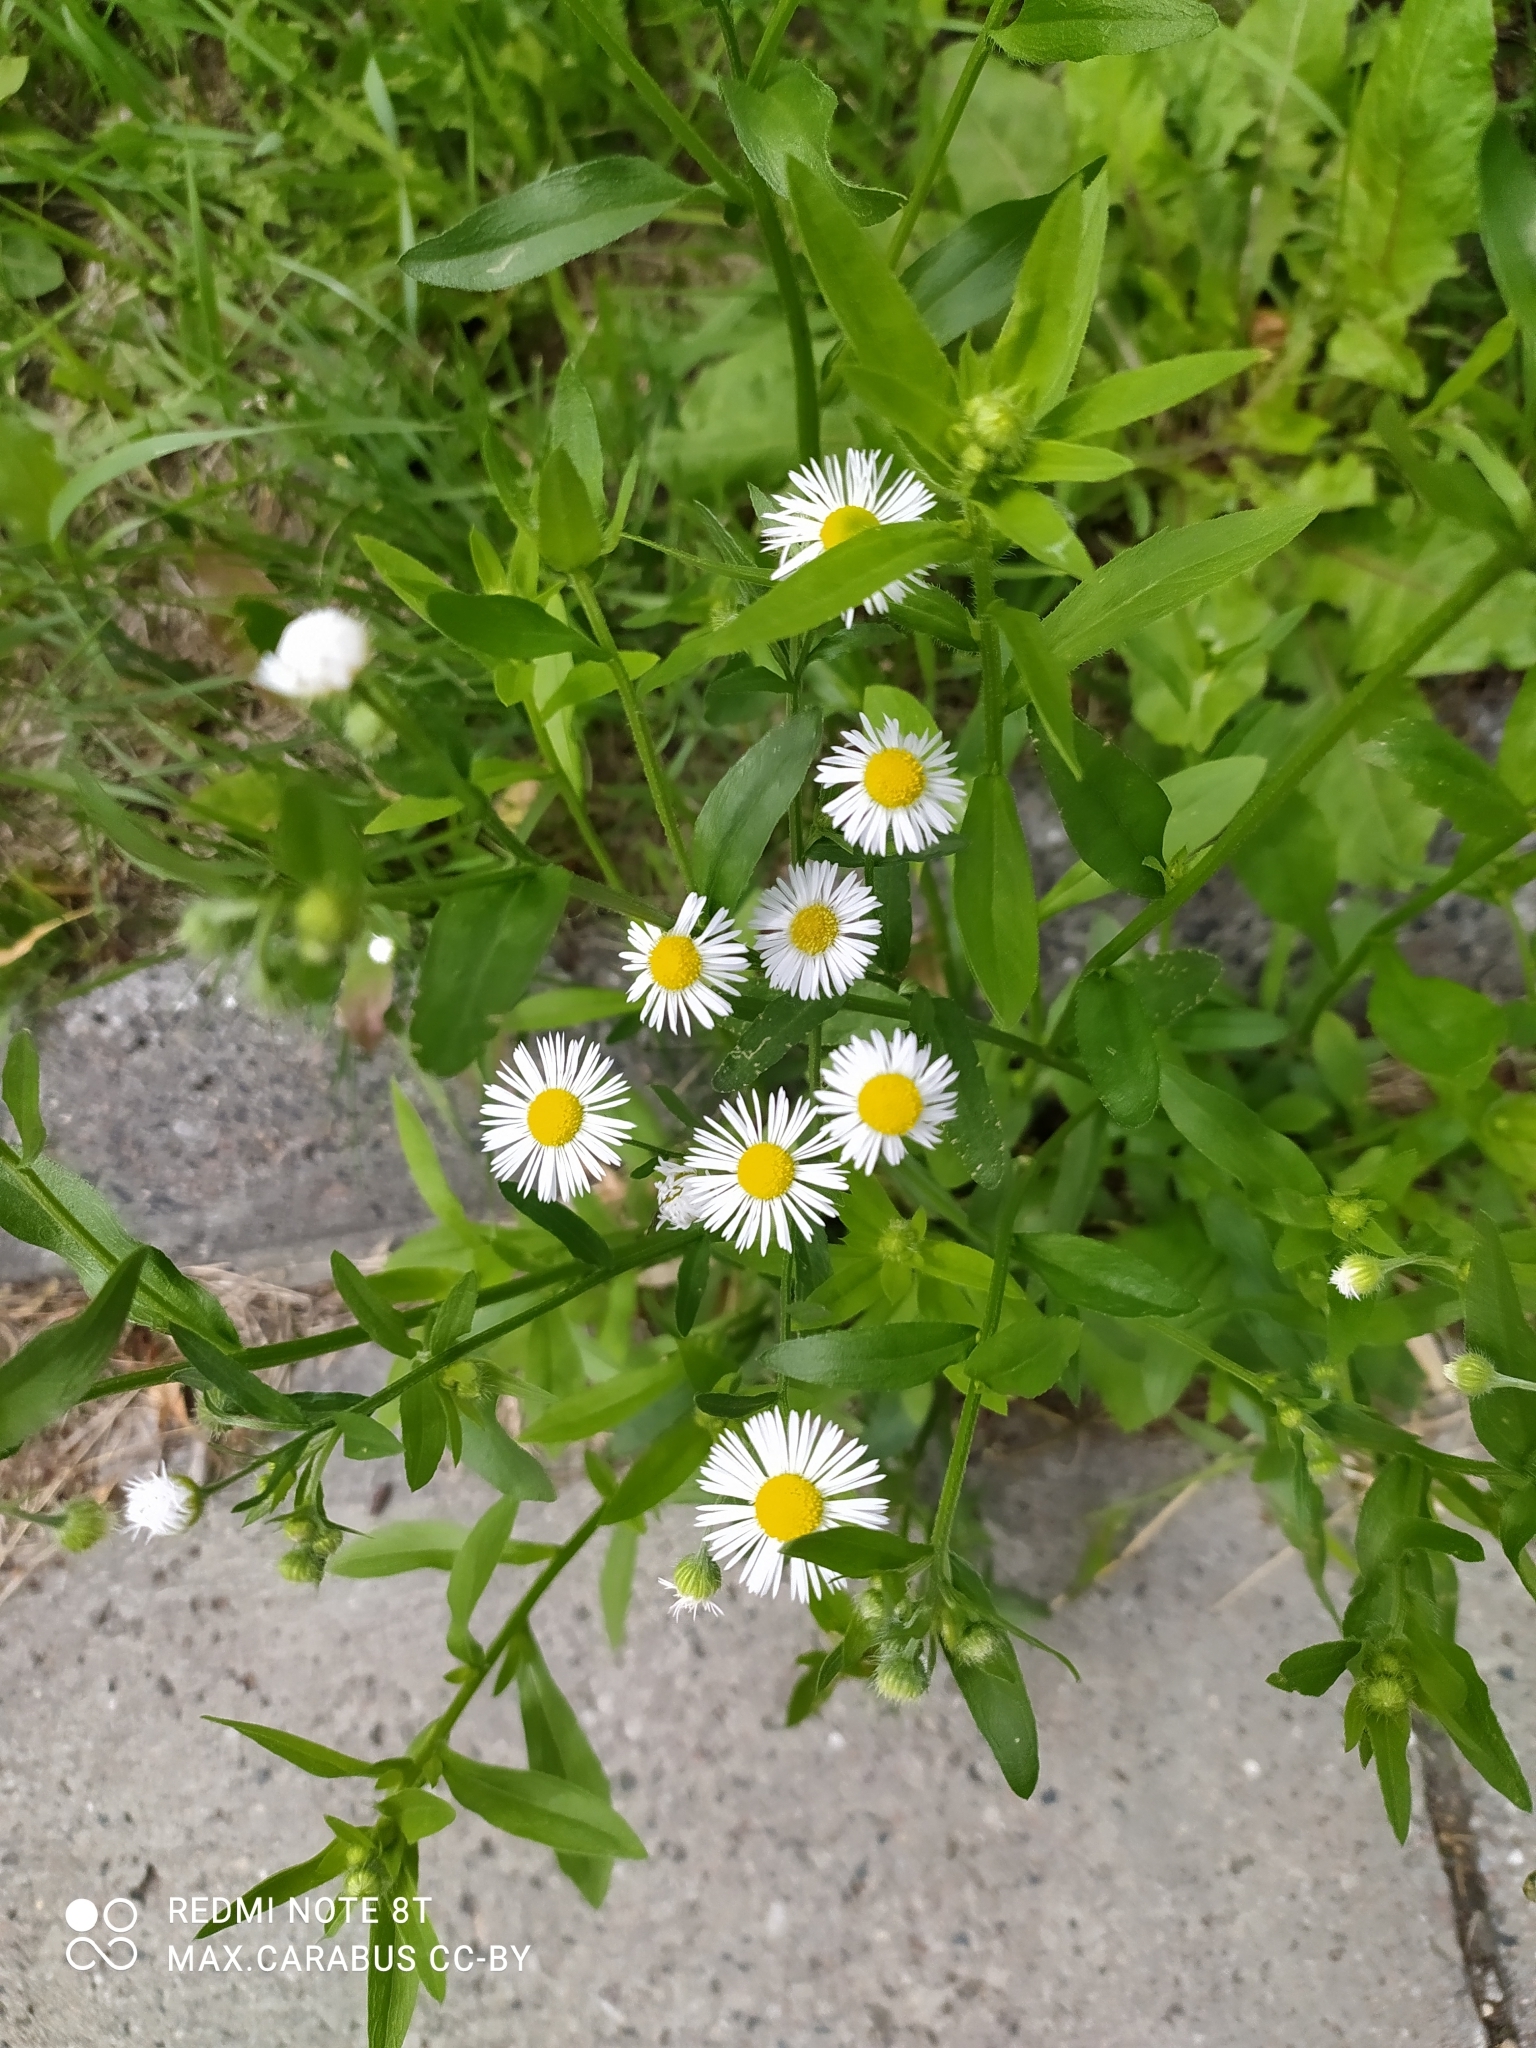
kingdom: Plantae
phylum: Tracheophyta
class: Magnoliopsida
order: Asterales
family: Asteraceae
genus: Erigeron
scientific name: Erigeron annuus
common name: Tall fleabane
